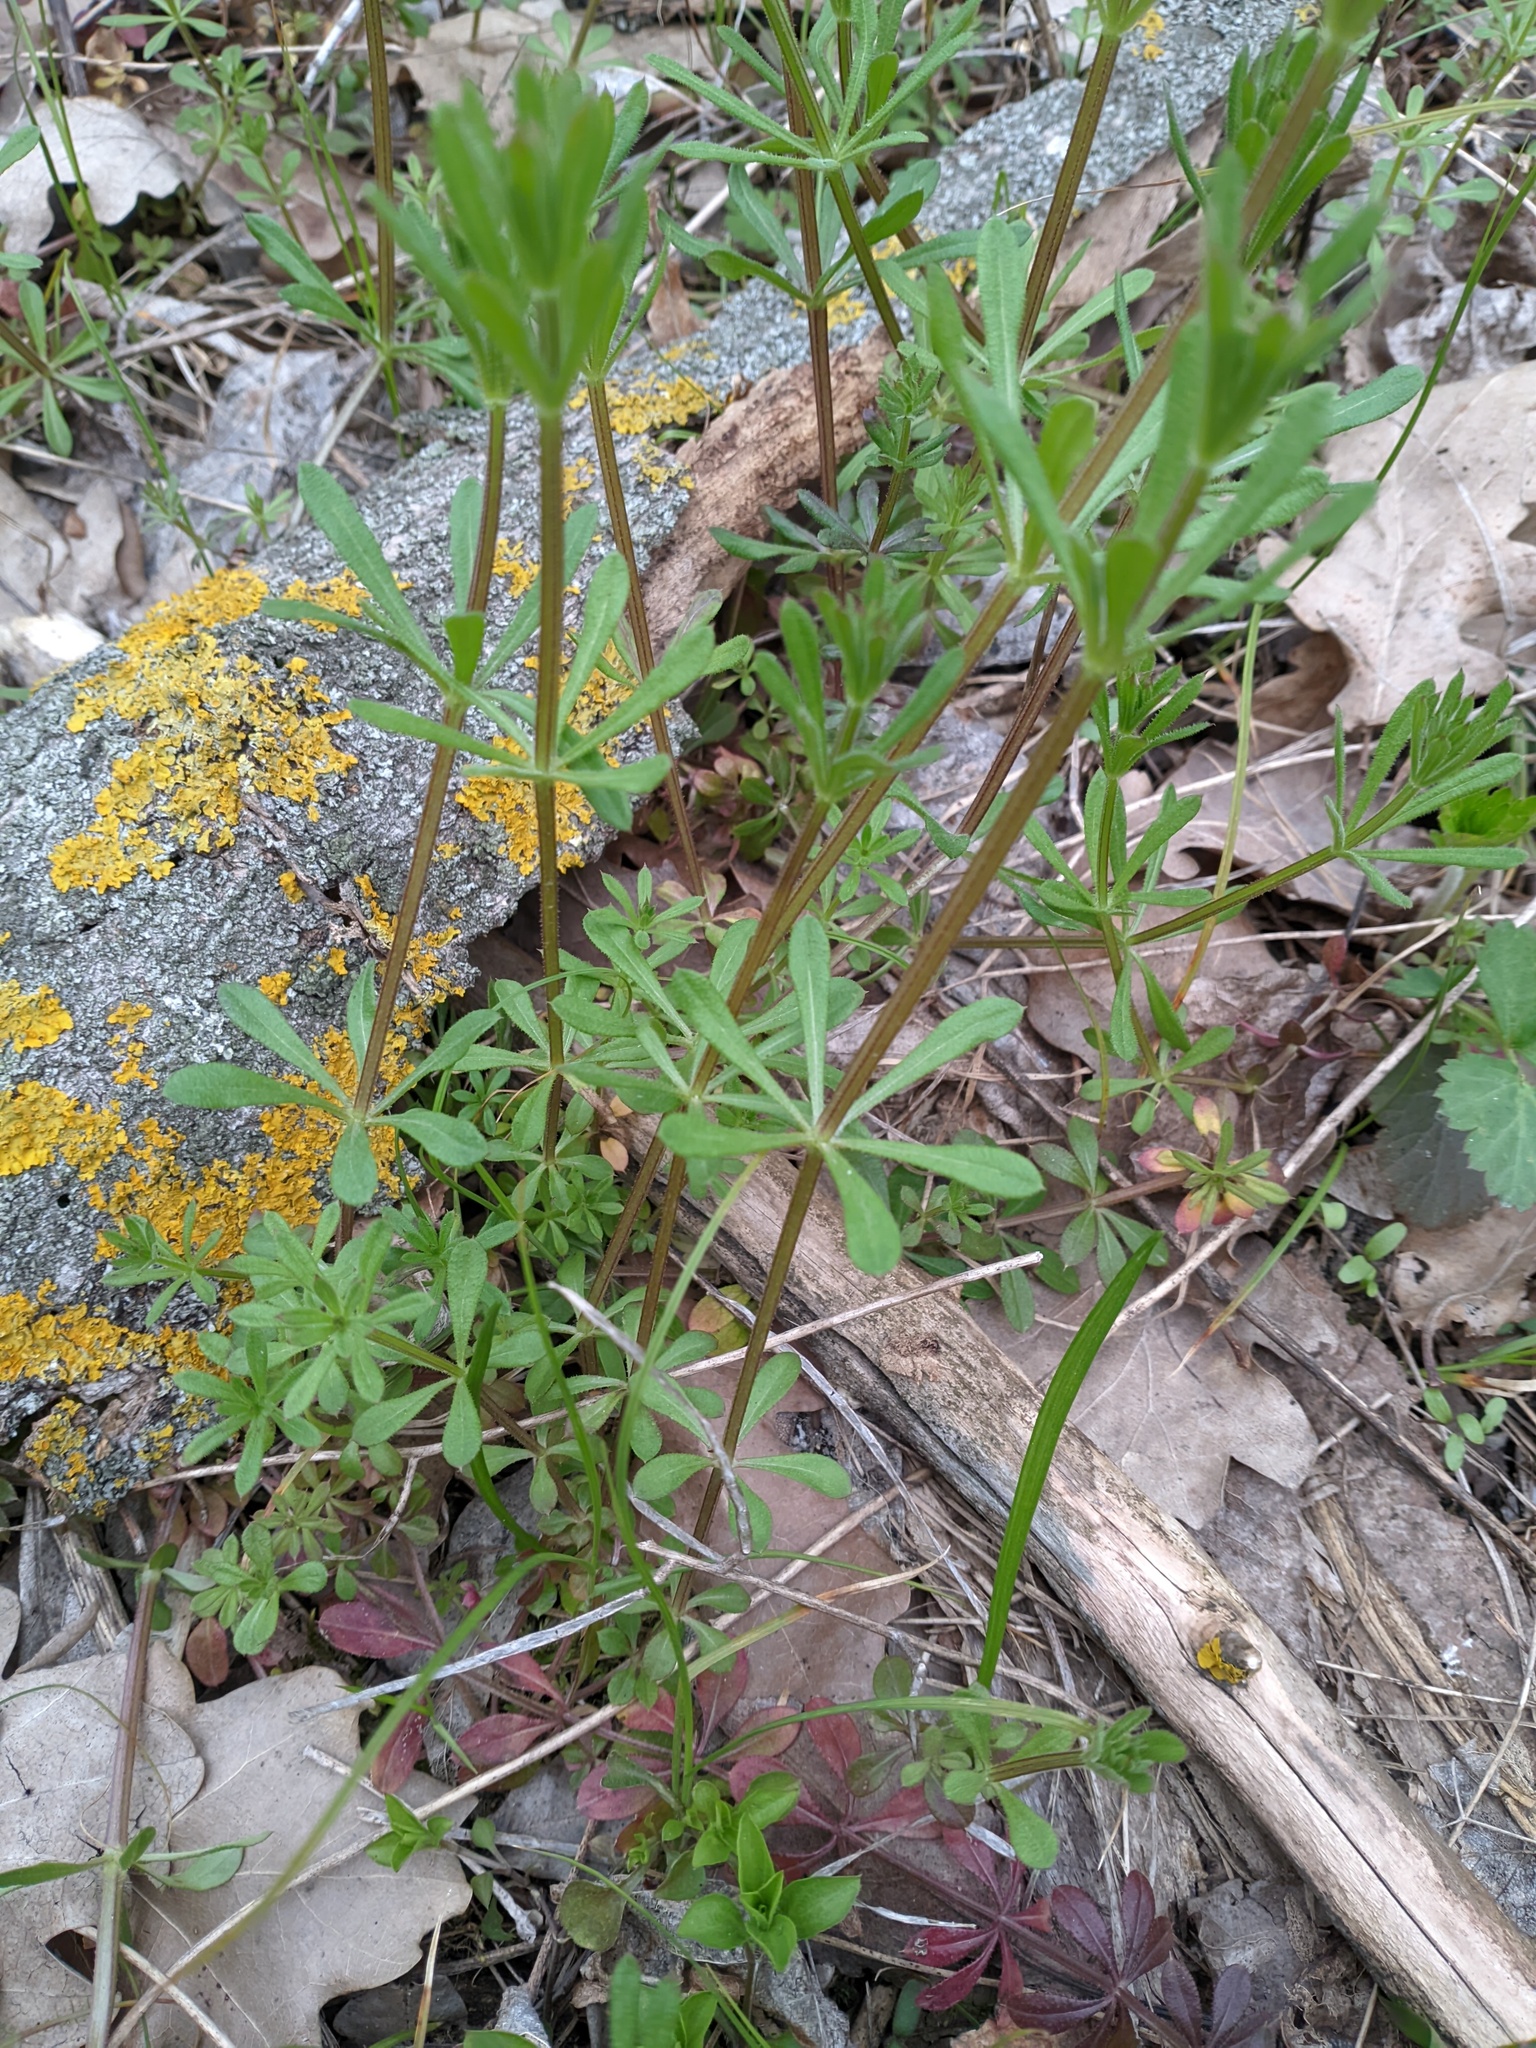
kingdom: Plantae
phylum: Tracheophyta
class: Magnoliopsida
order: Gentianales
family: Rubiaceae
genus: Galium
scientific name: Galium aparine
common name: Cleavers
